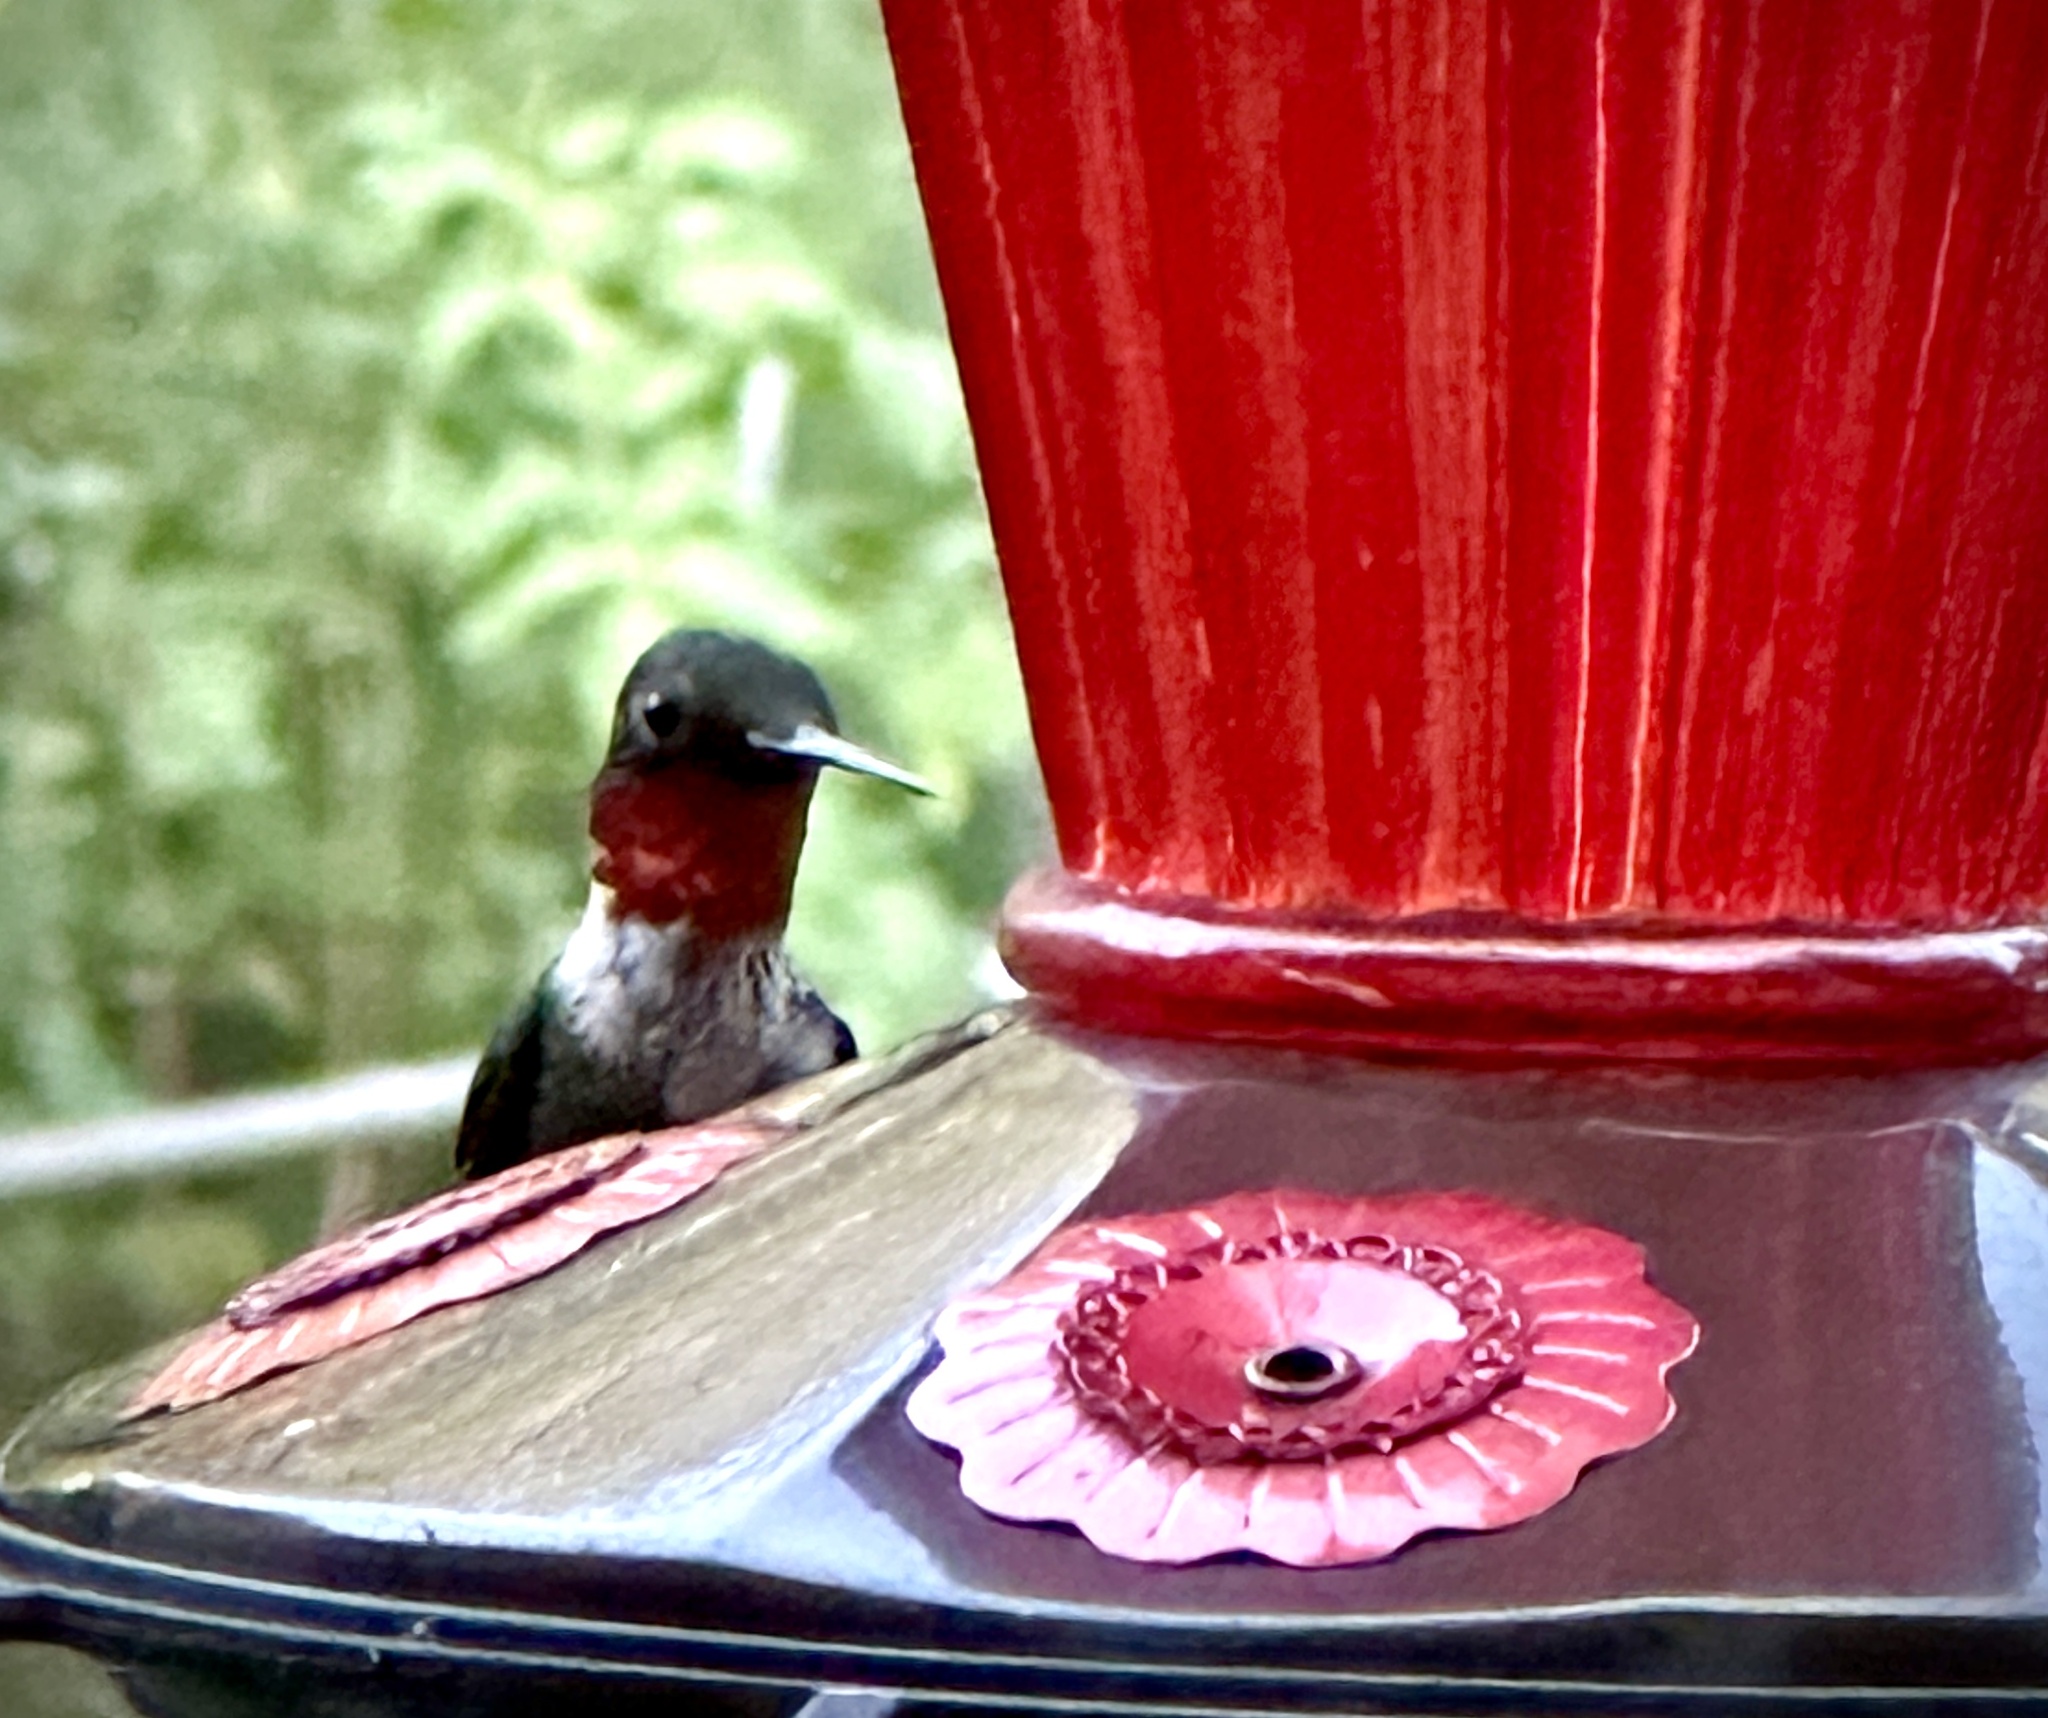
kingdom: Animalia
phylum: Chordata
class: Aves
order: Apodiformes
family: Trochilidae
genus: Archilochus
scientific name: Archilochus colubris
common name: Ruby-throated hummingbird
